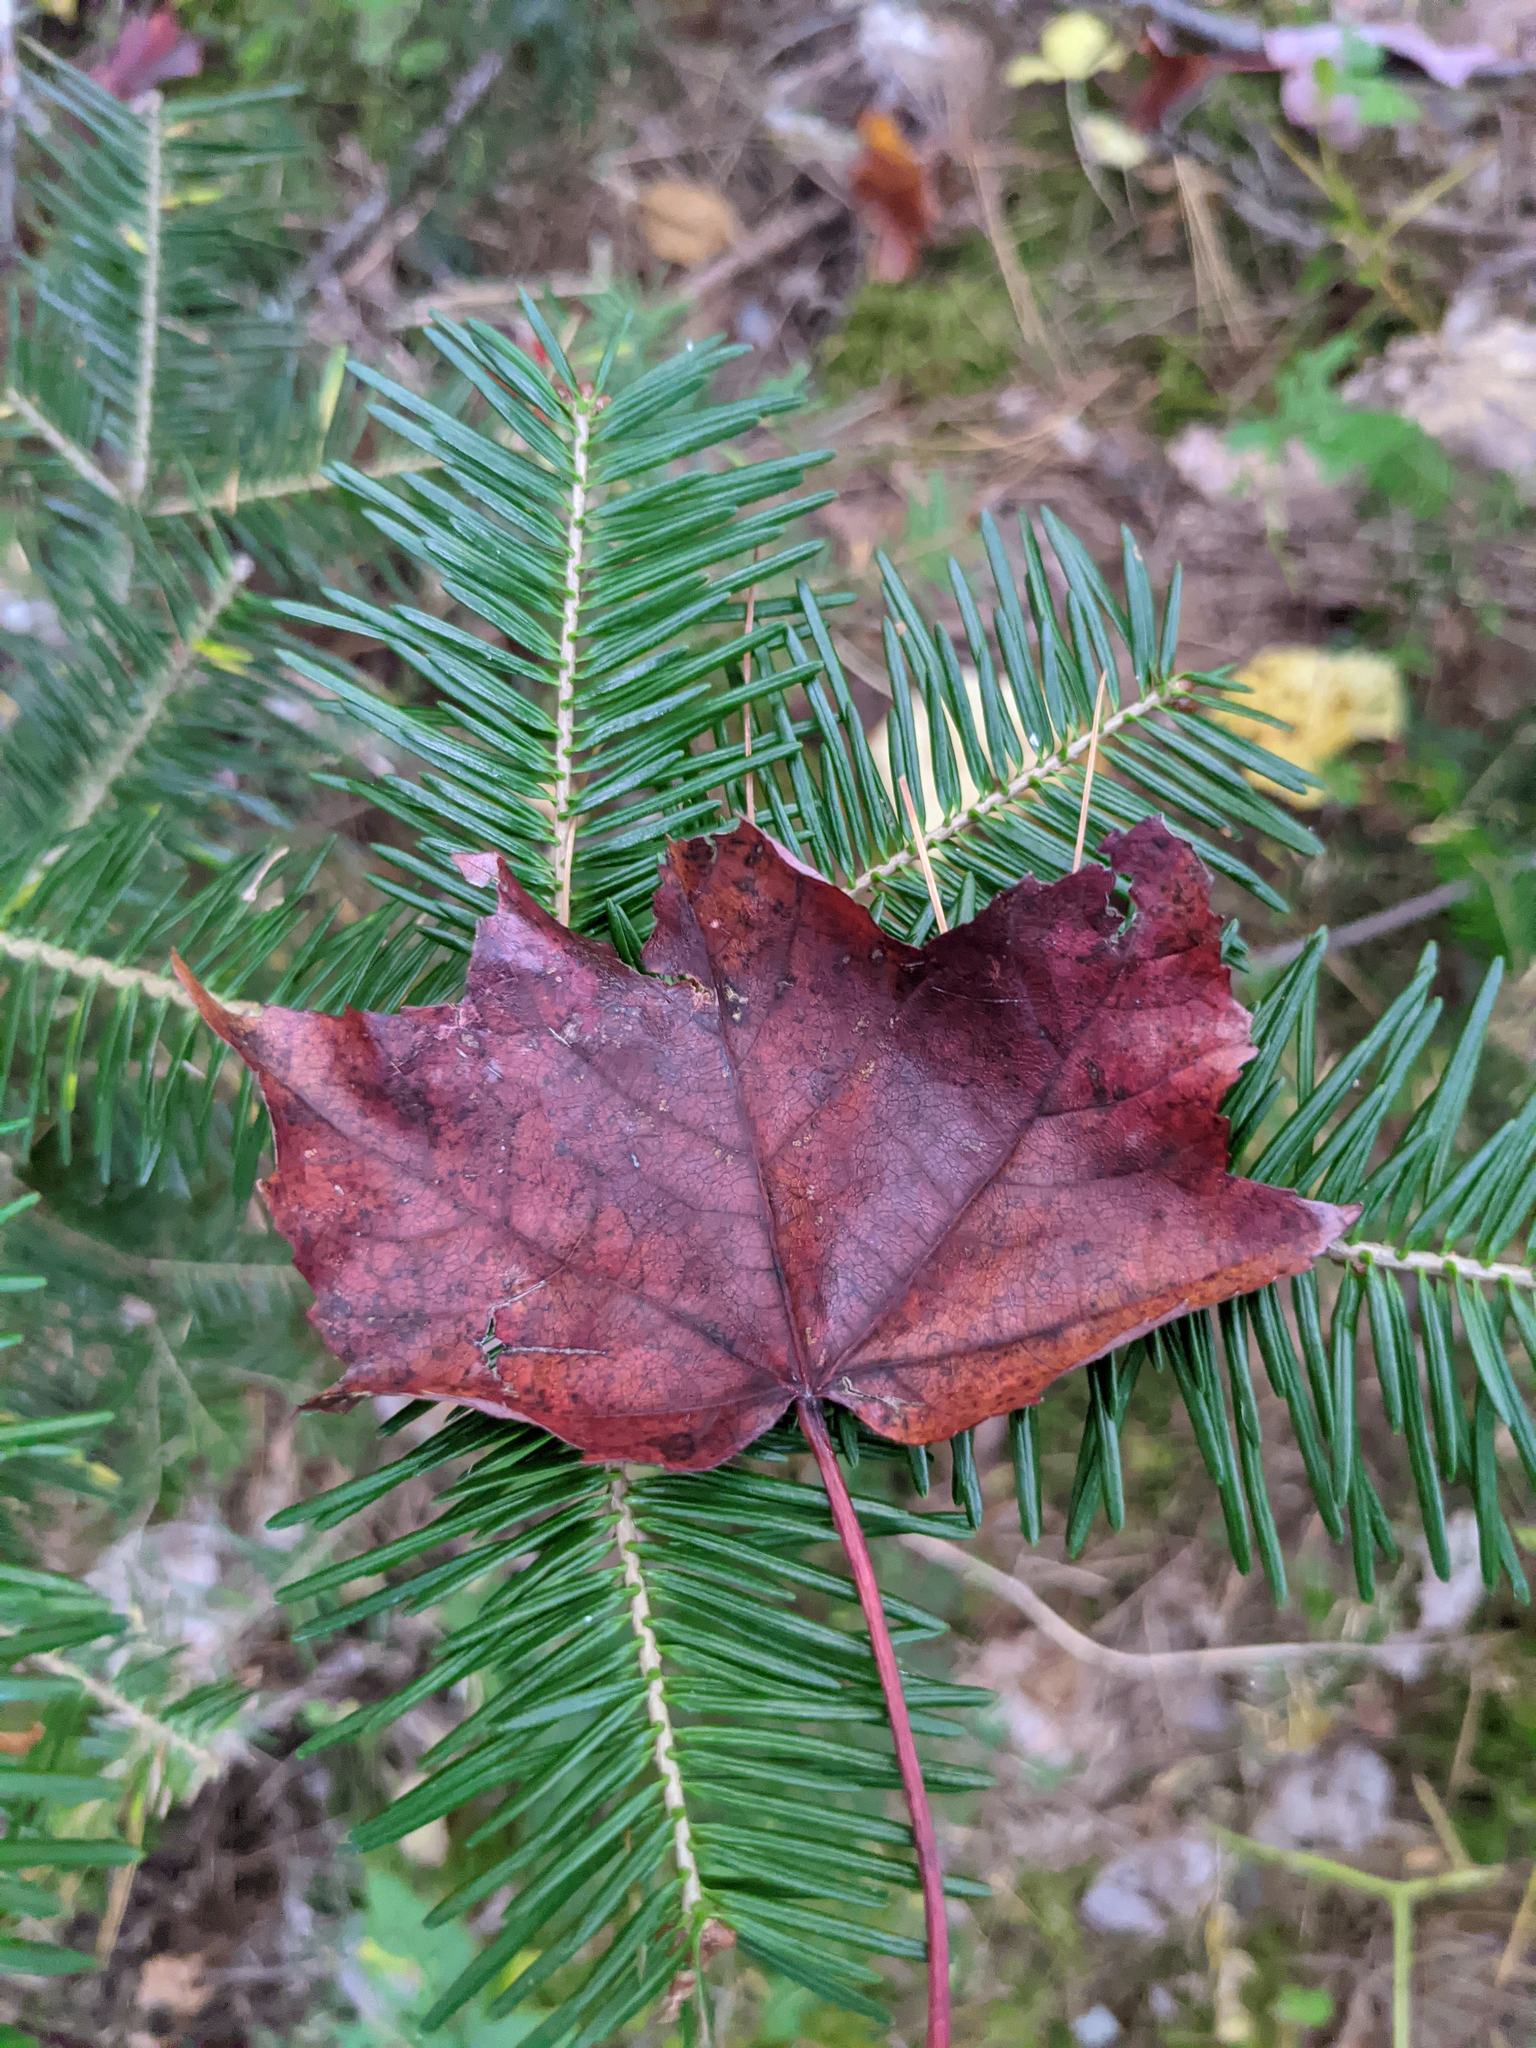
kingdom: Plantae
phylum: Tracheophyta
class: Magnoliopsida
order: Sapindales
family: Sapindaceae
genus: Acer
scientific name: Acer rubrum
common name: Red maple
